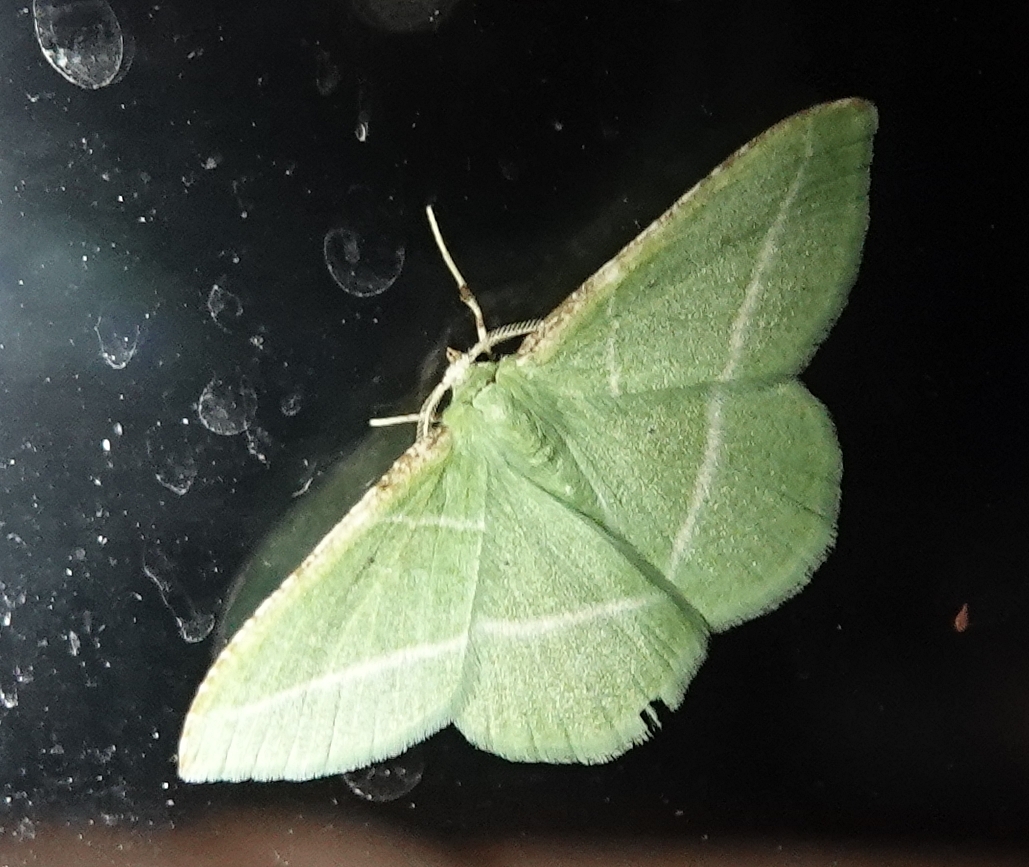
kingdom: Animalia
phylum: Arthropoda
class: Insecta
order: Lepidoptera
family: Geometridae
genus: Dichorda
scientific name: Dichorda rectaria
